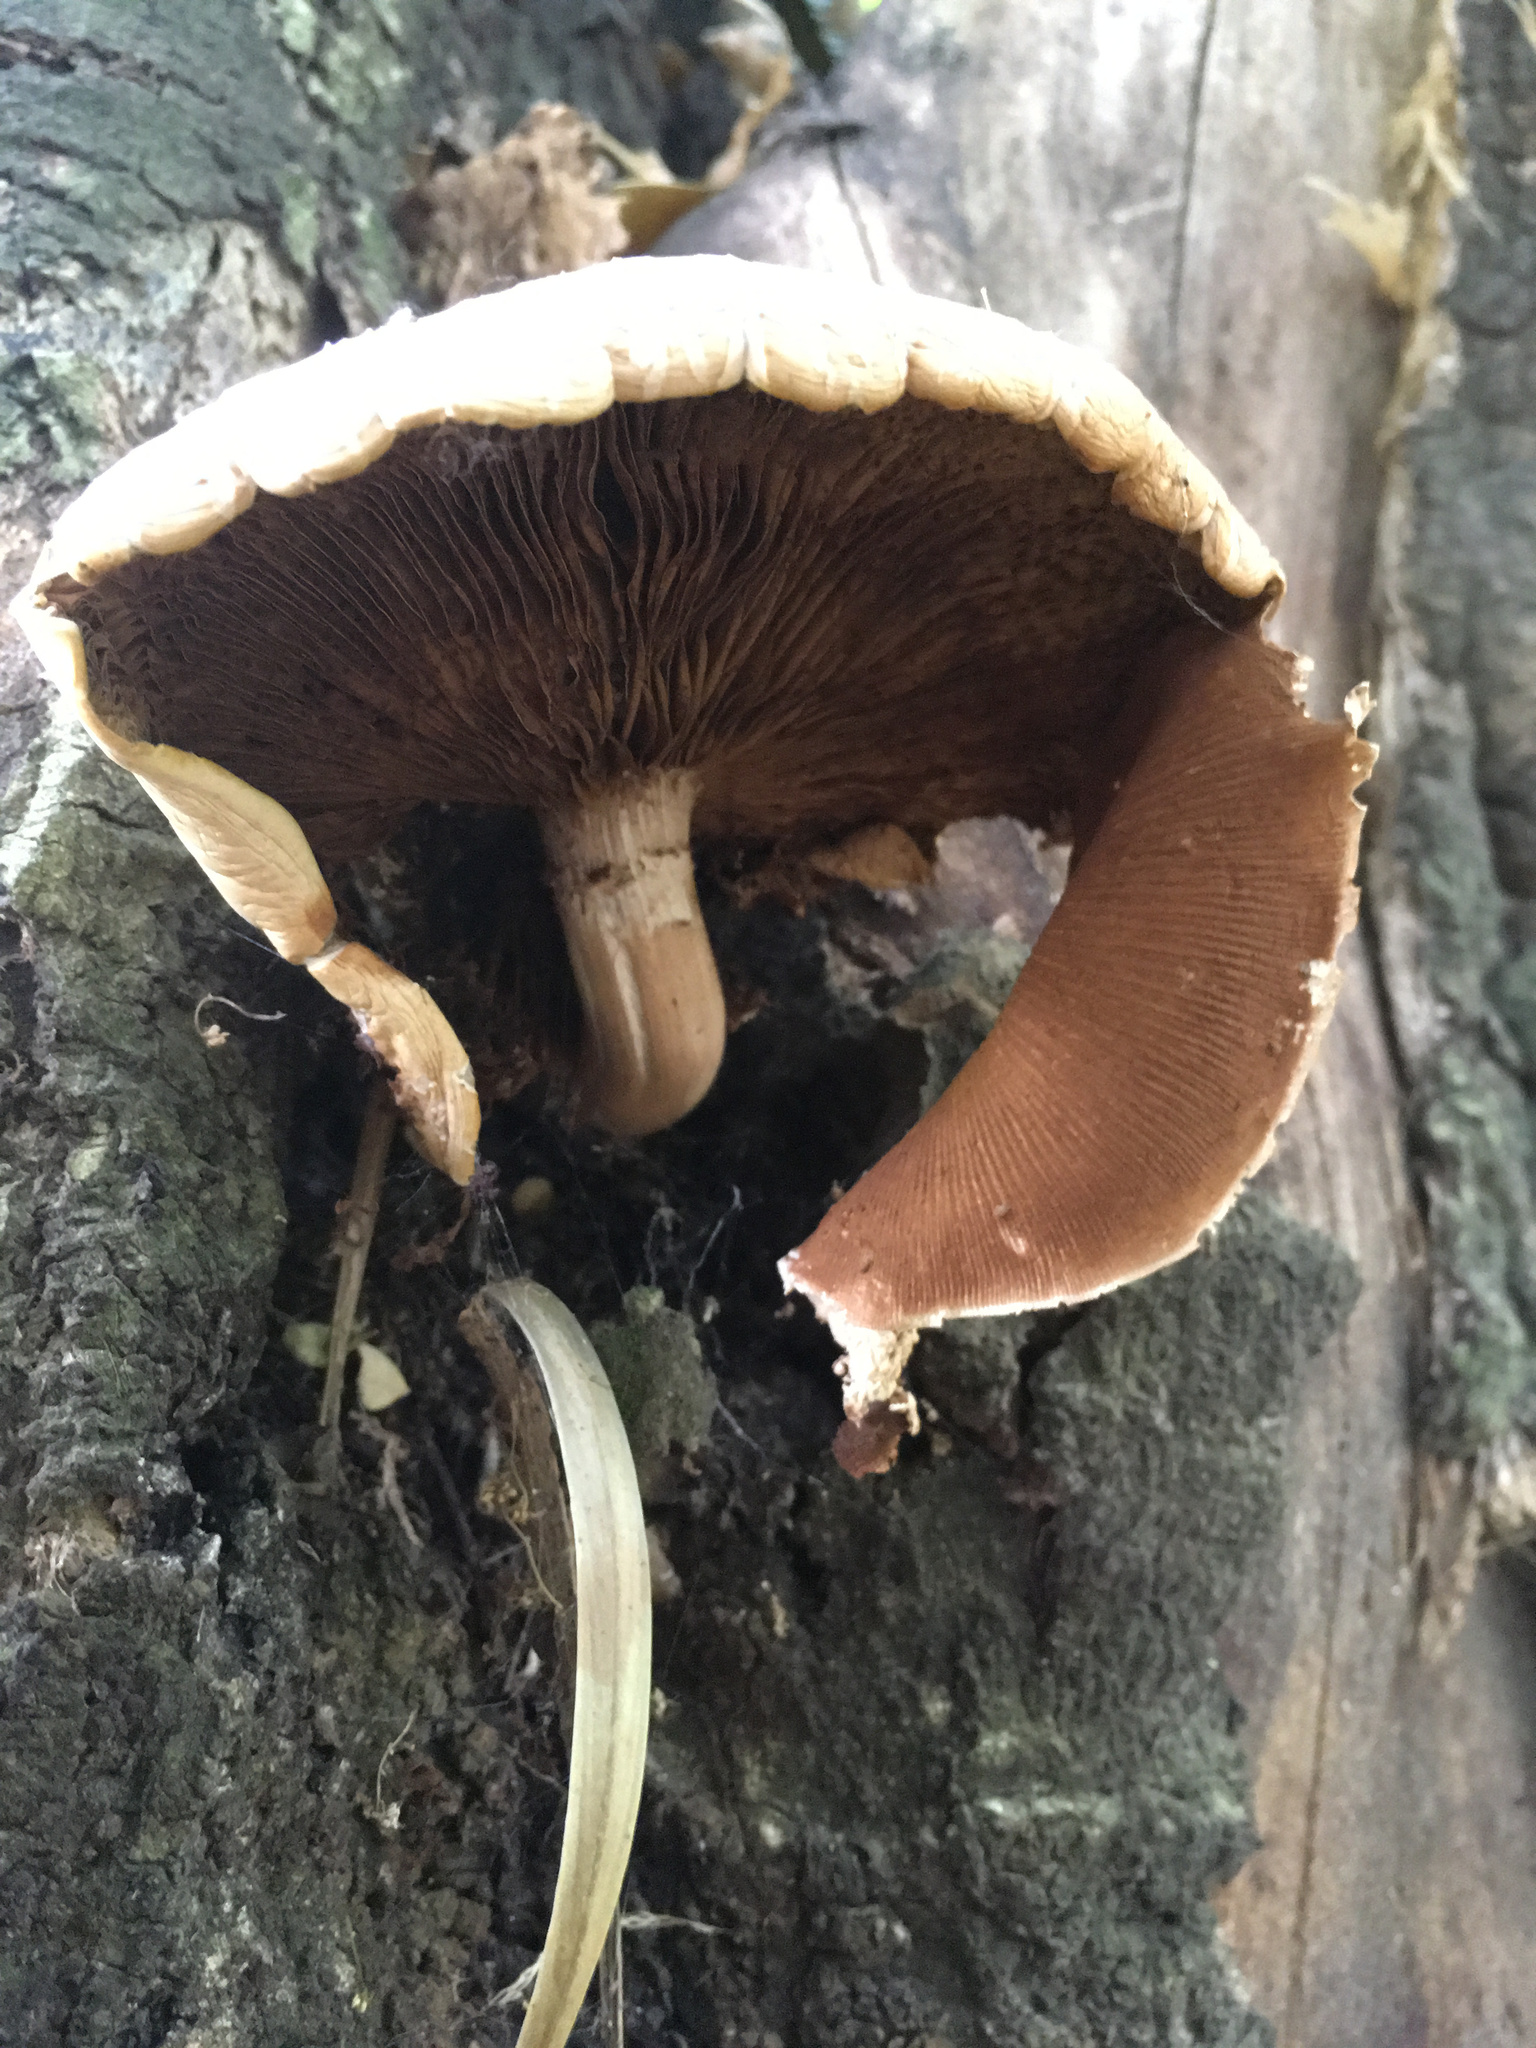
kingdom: Fungi
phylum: Basidiomycota
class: Agaricomycetes
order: Agaricales
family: Tubariaceae
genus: Cyclocybe
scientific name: Cyclocybe parasitica
